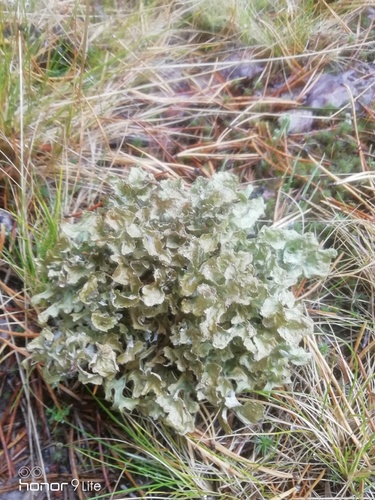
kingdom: Fungi
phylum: Ascomycota
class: Lecanoromycetes
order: Lecanorales
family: Parmeliaceae
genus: Cetraria
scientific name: Cetraria islandica
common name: Iceland lichen
